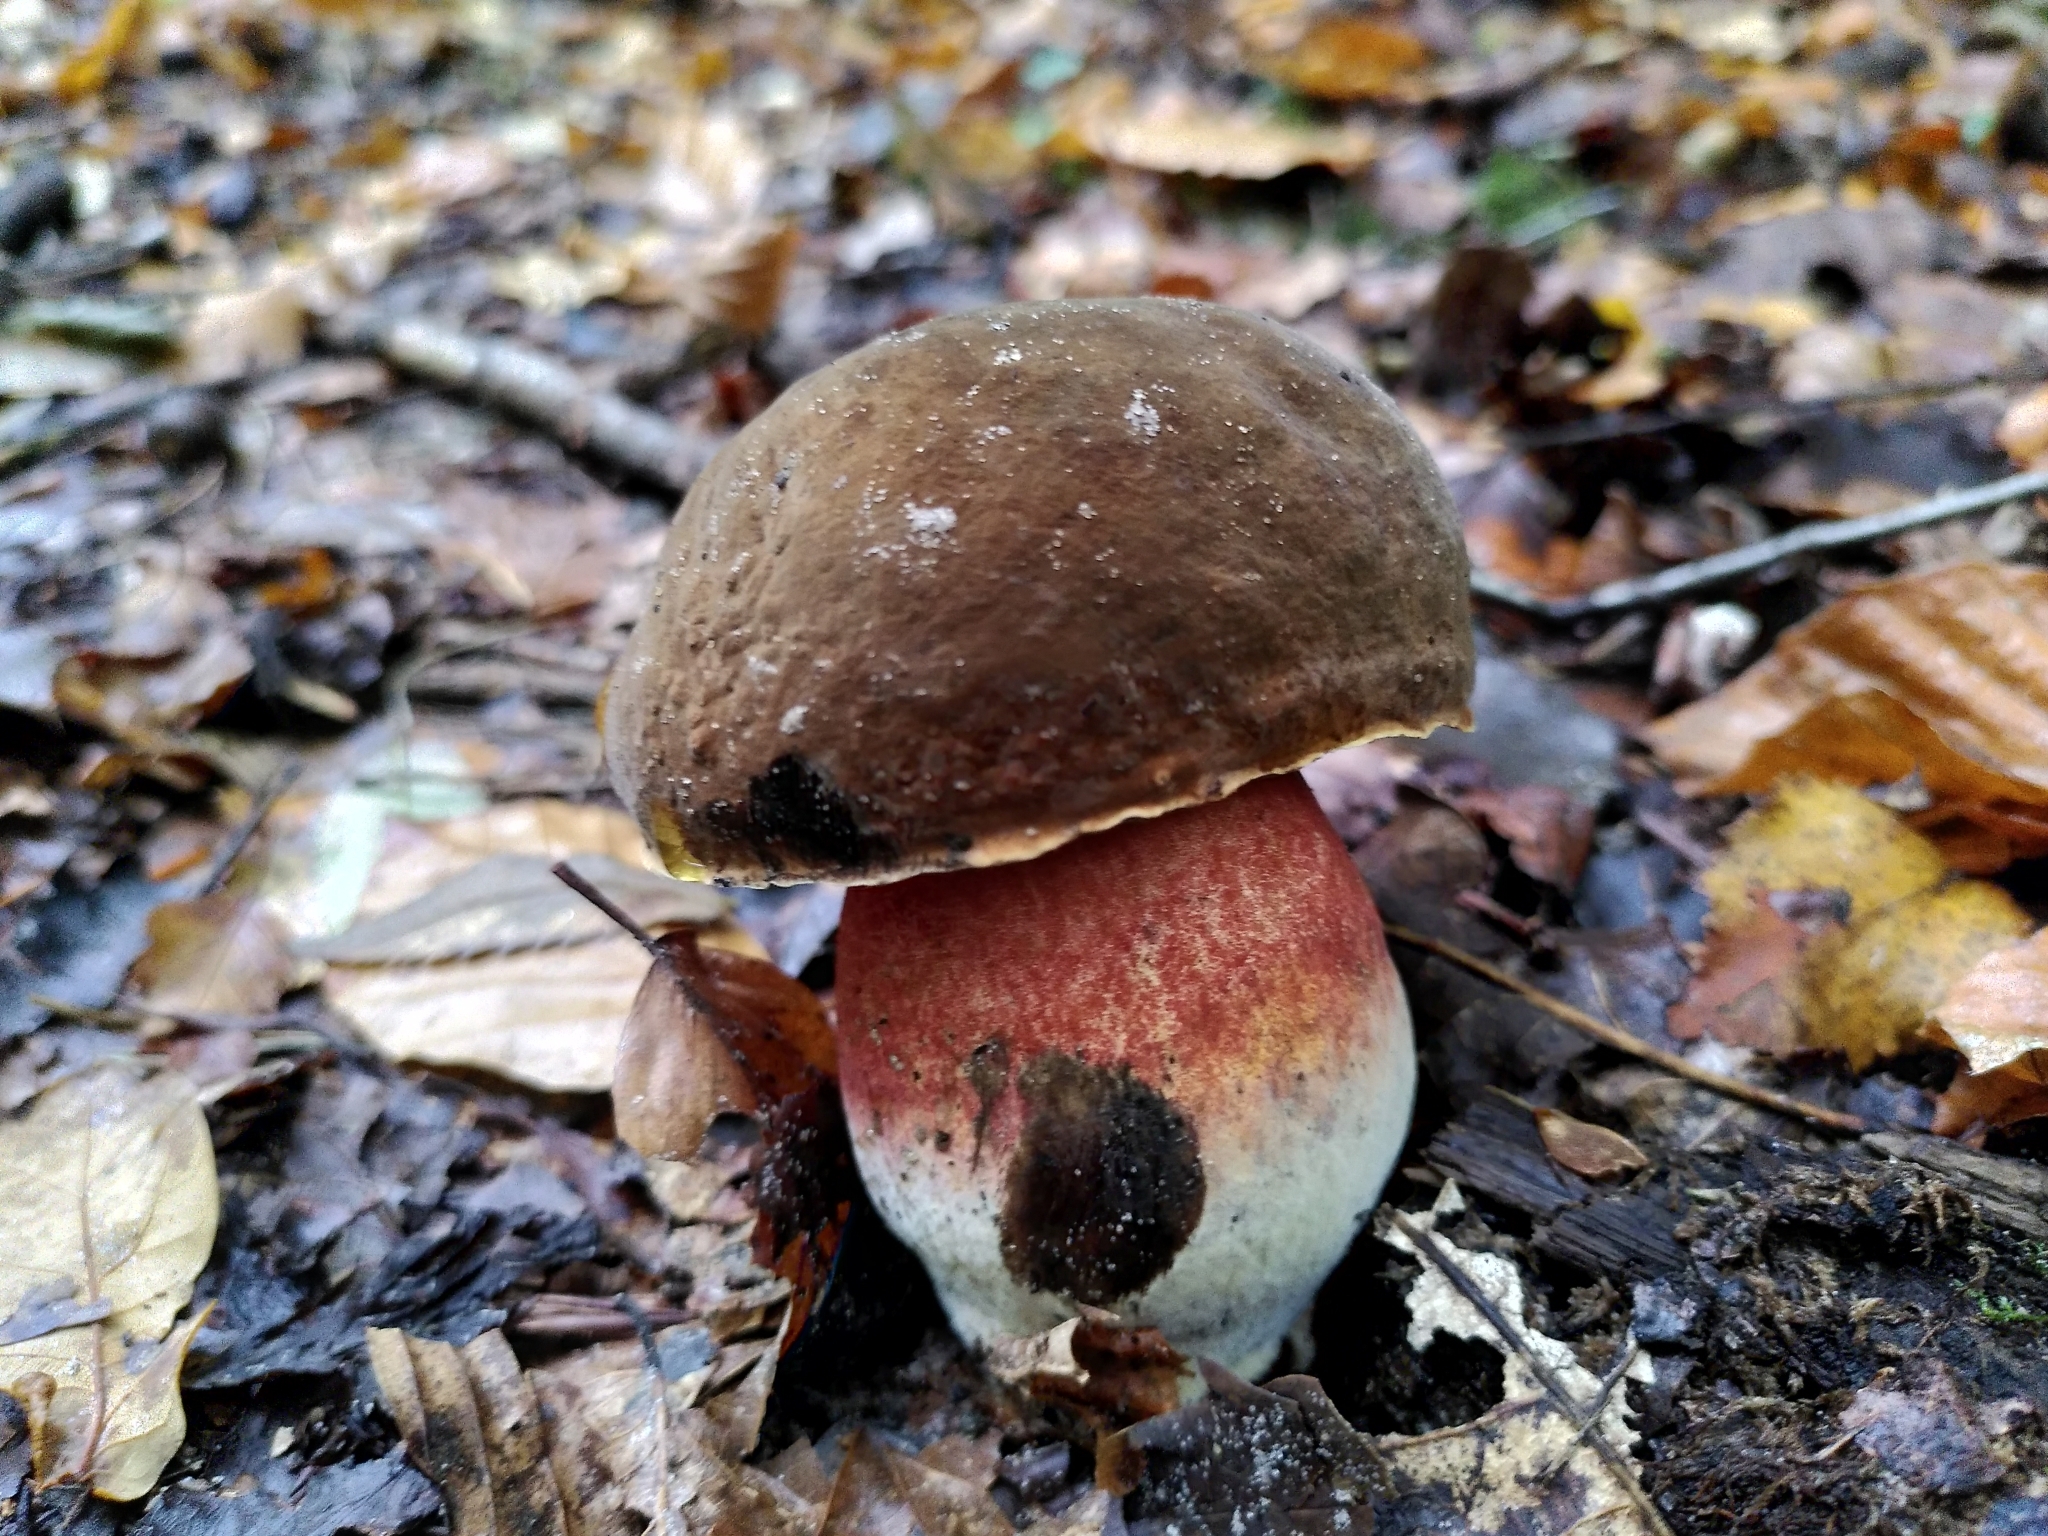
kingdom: Fungi
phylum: Basidiomycota
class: Agaricomycetes
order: Boletales
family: Boletaceae
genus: Neoboletus
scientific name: Neoboletus luridiformis
